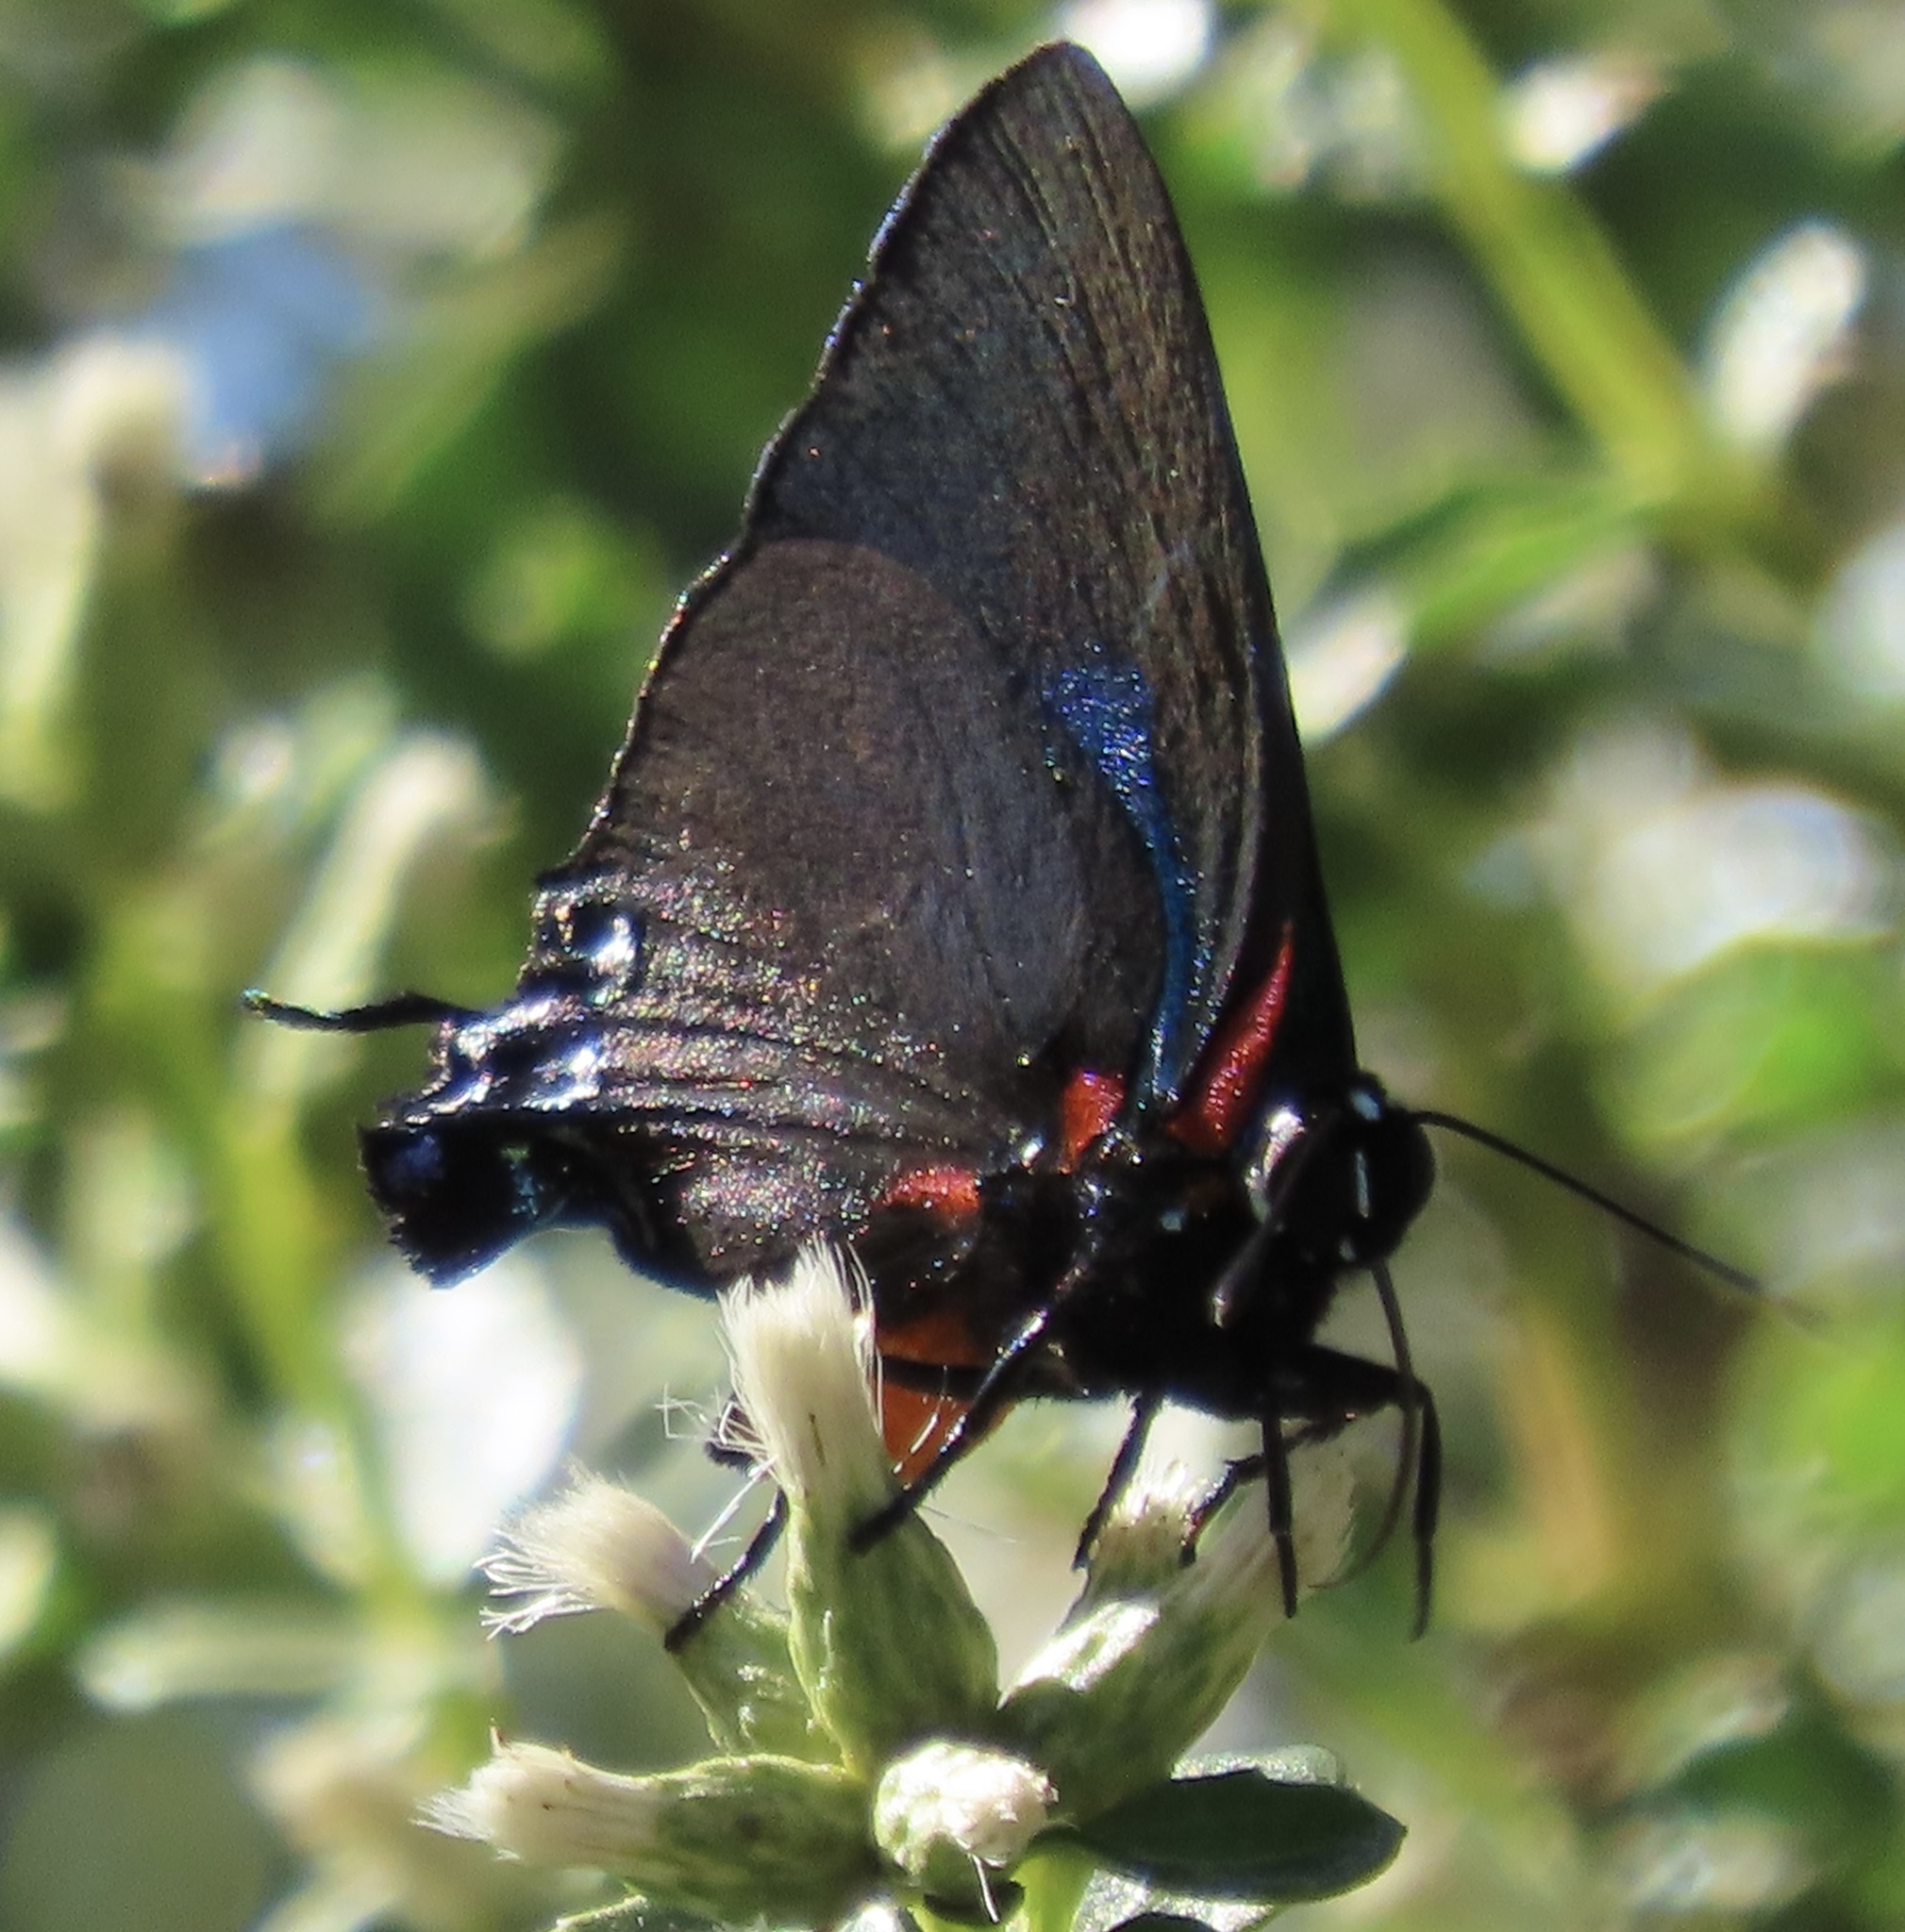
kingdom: Animalia
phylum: Arthropoda
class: Insecta
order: Lepidoptera
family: Lycaenidae
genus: Atlides
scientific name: Atlides halesus
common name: Great purple hairstreak
